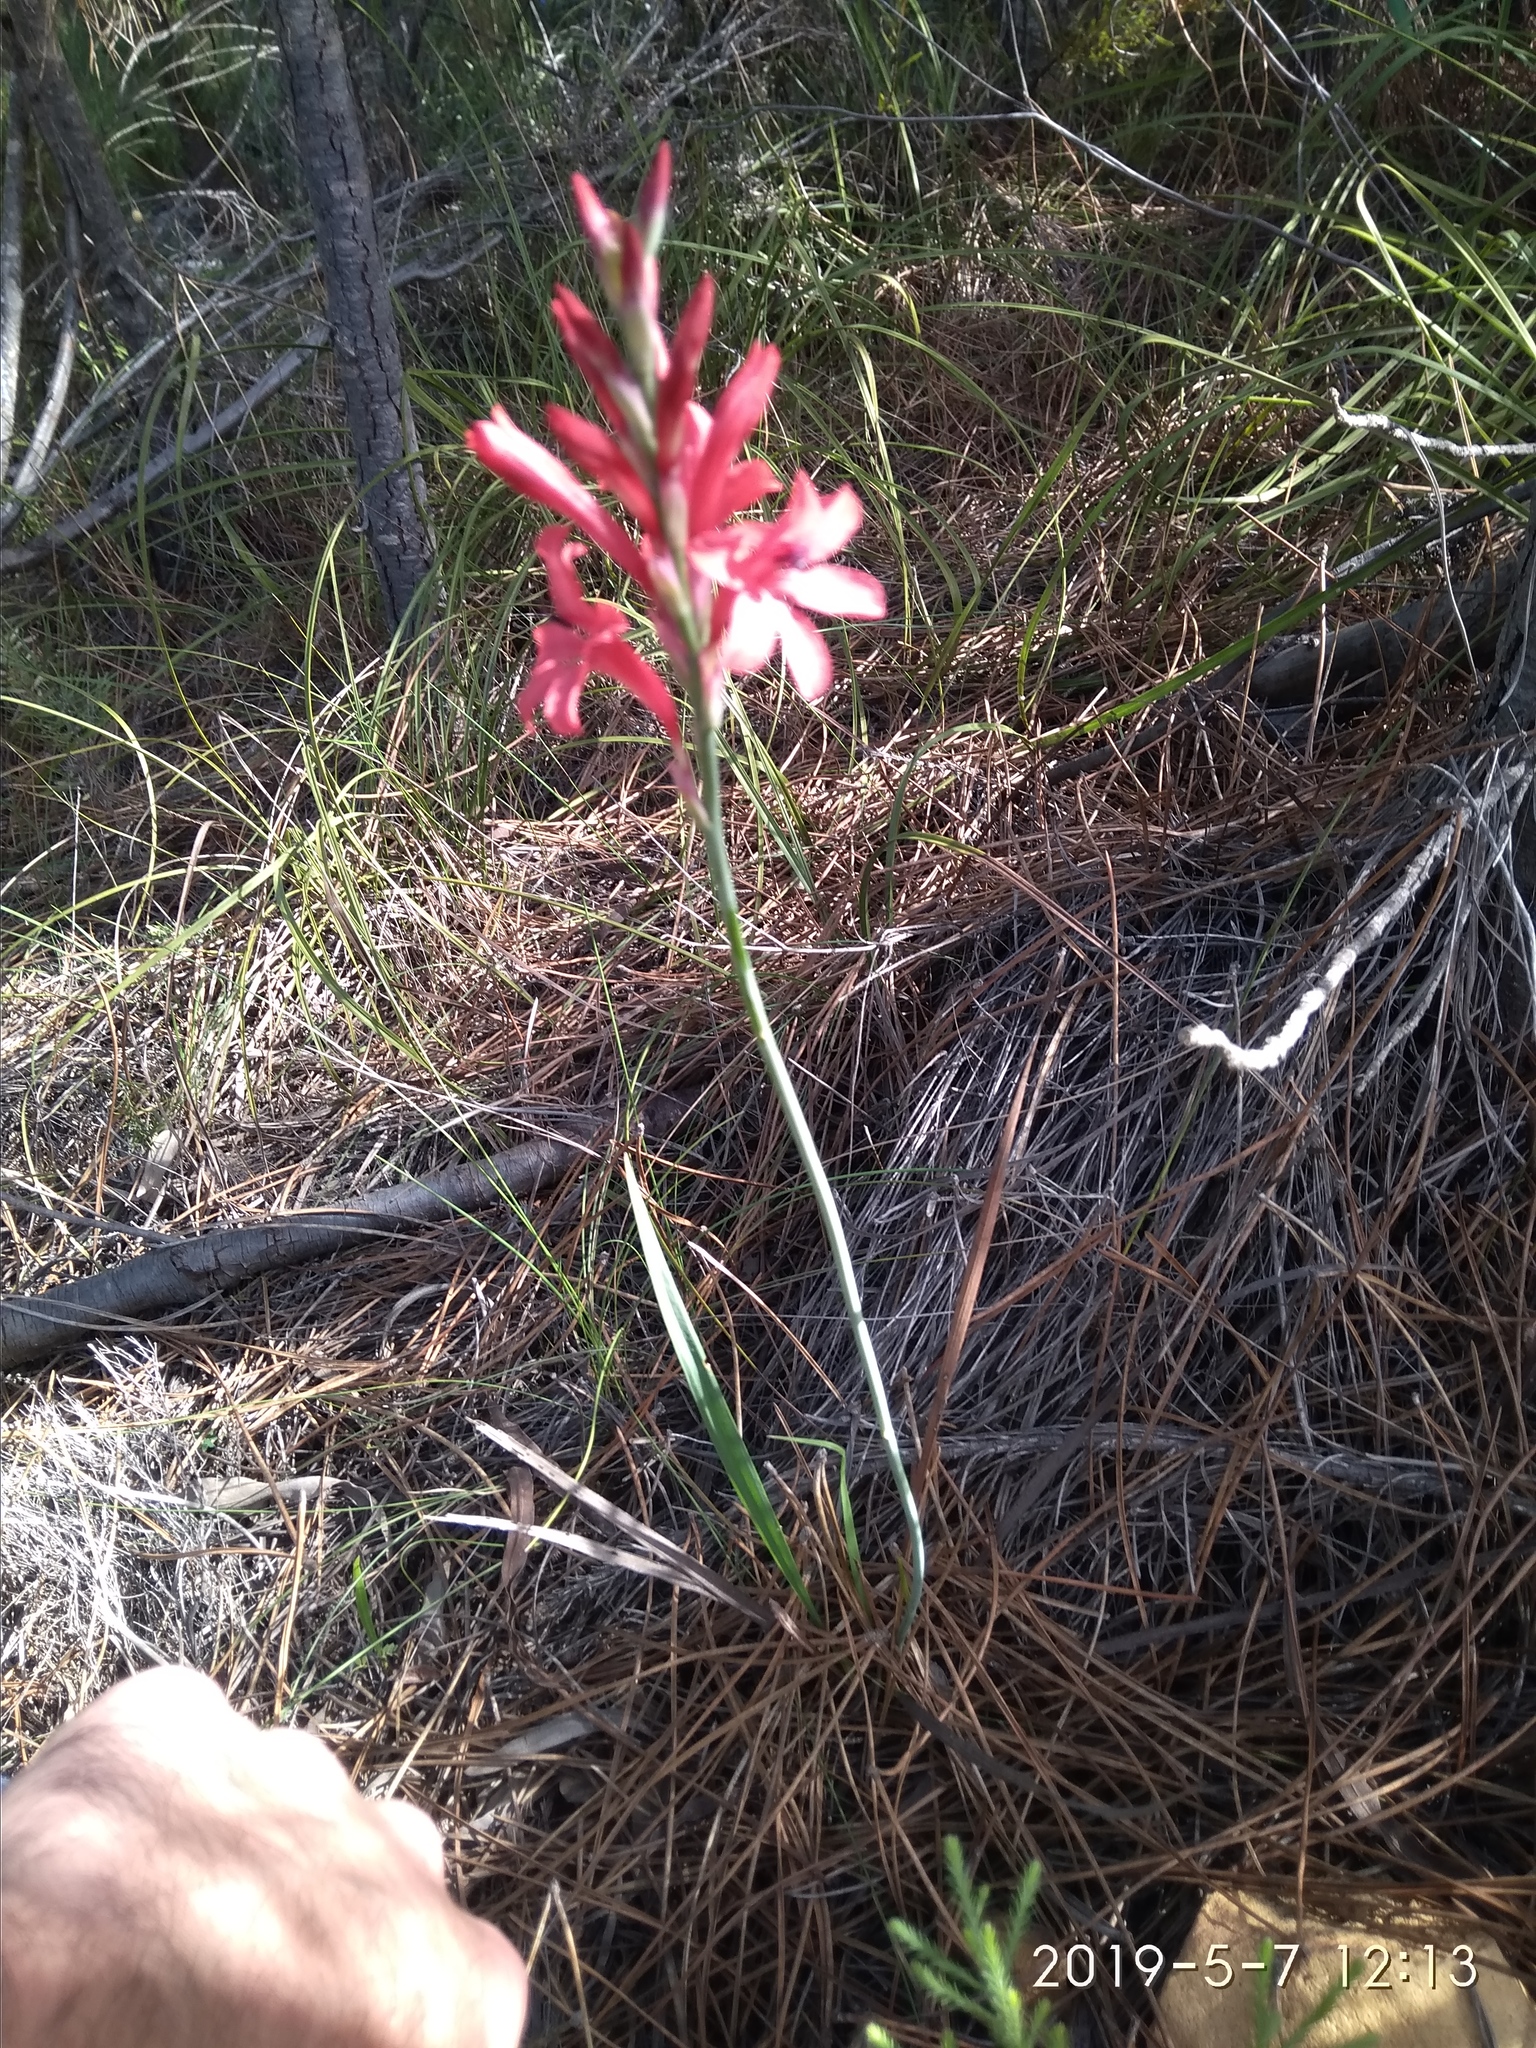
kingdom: Plantae
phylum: Tracheophyta
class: Liliopsida
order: Asparagales
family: Iridaceae
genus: Tritoniopsis
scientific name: Tritoniopsis pulchra
